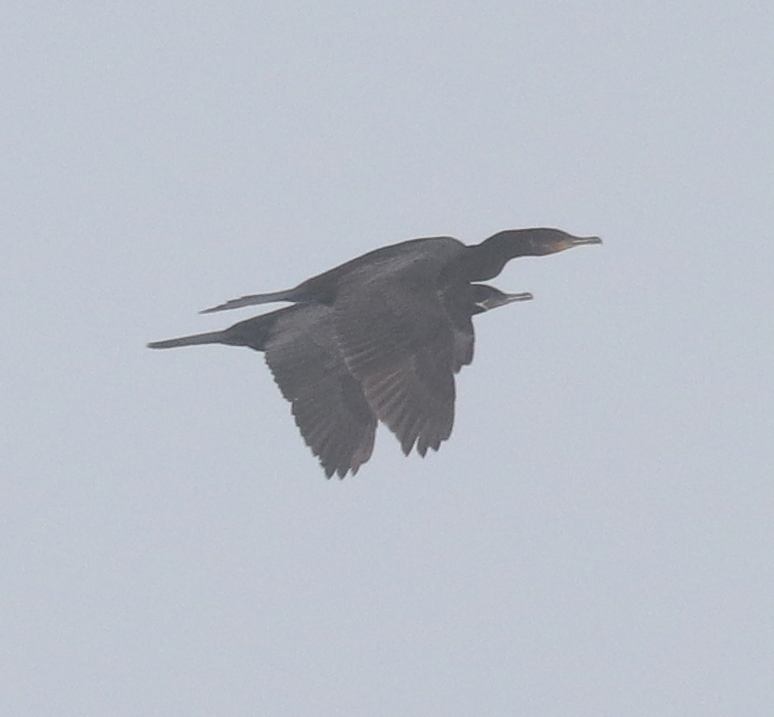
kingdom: Animalia
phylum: Chordata
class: Aves
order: Suliformes
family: Phalacrocoracidae
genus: Phalacrocorax
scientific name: Phalacrocorax brasilianus
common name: Neotropic cormorant
